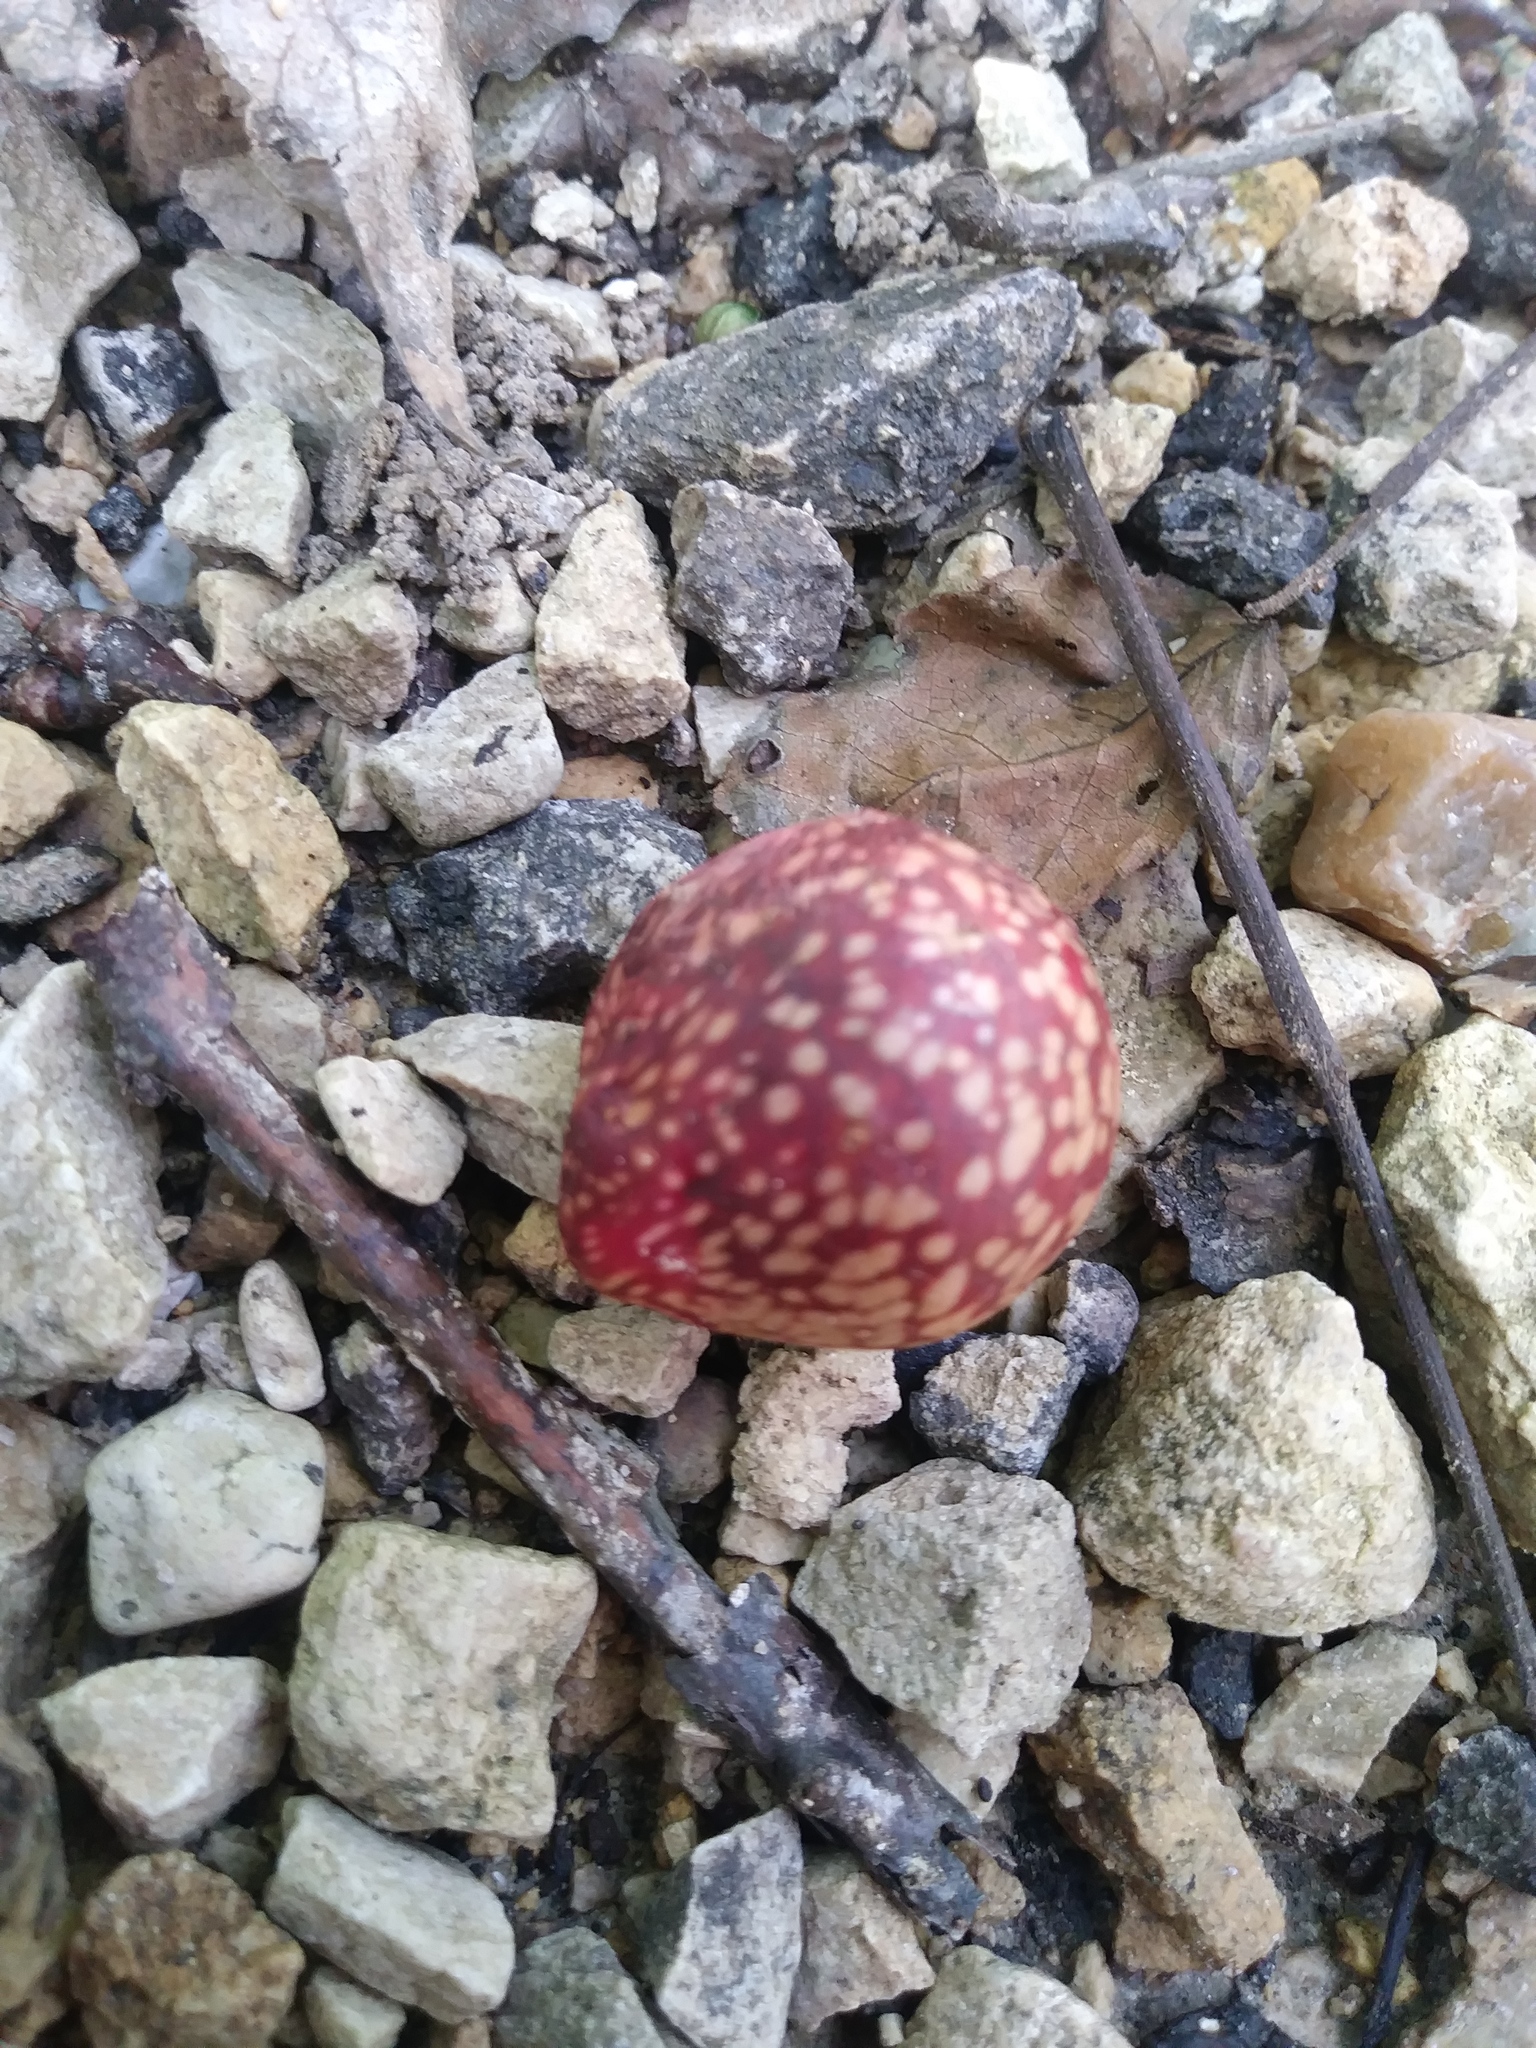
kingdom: Animalia
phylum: Arthropoda
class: Insecta
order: Hymenoptera
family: Cynipidae
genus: Amphibolips
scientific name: Amphibolips
